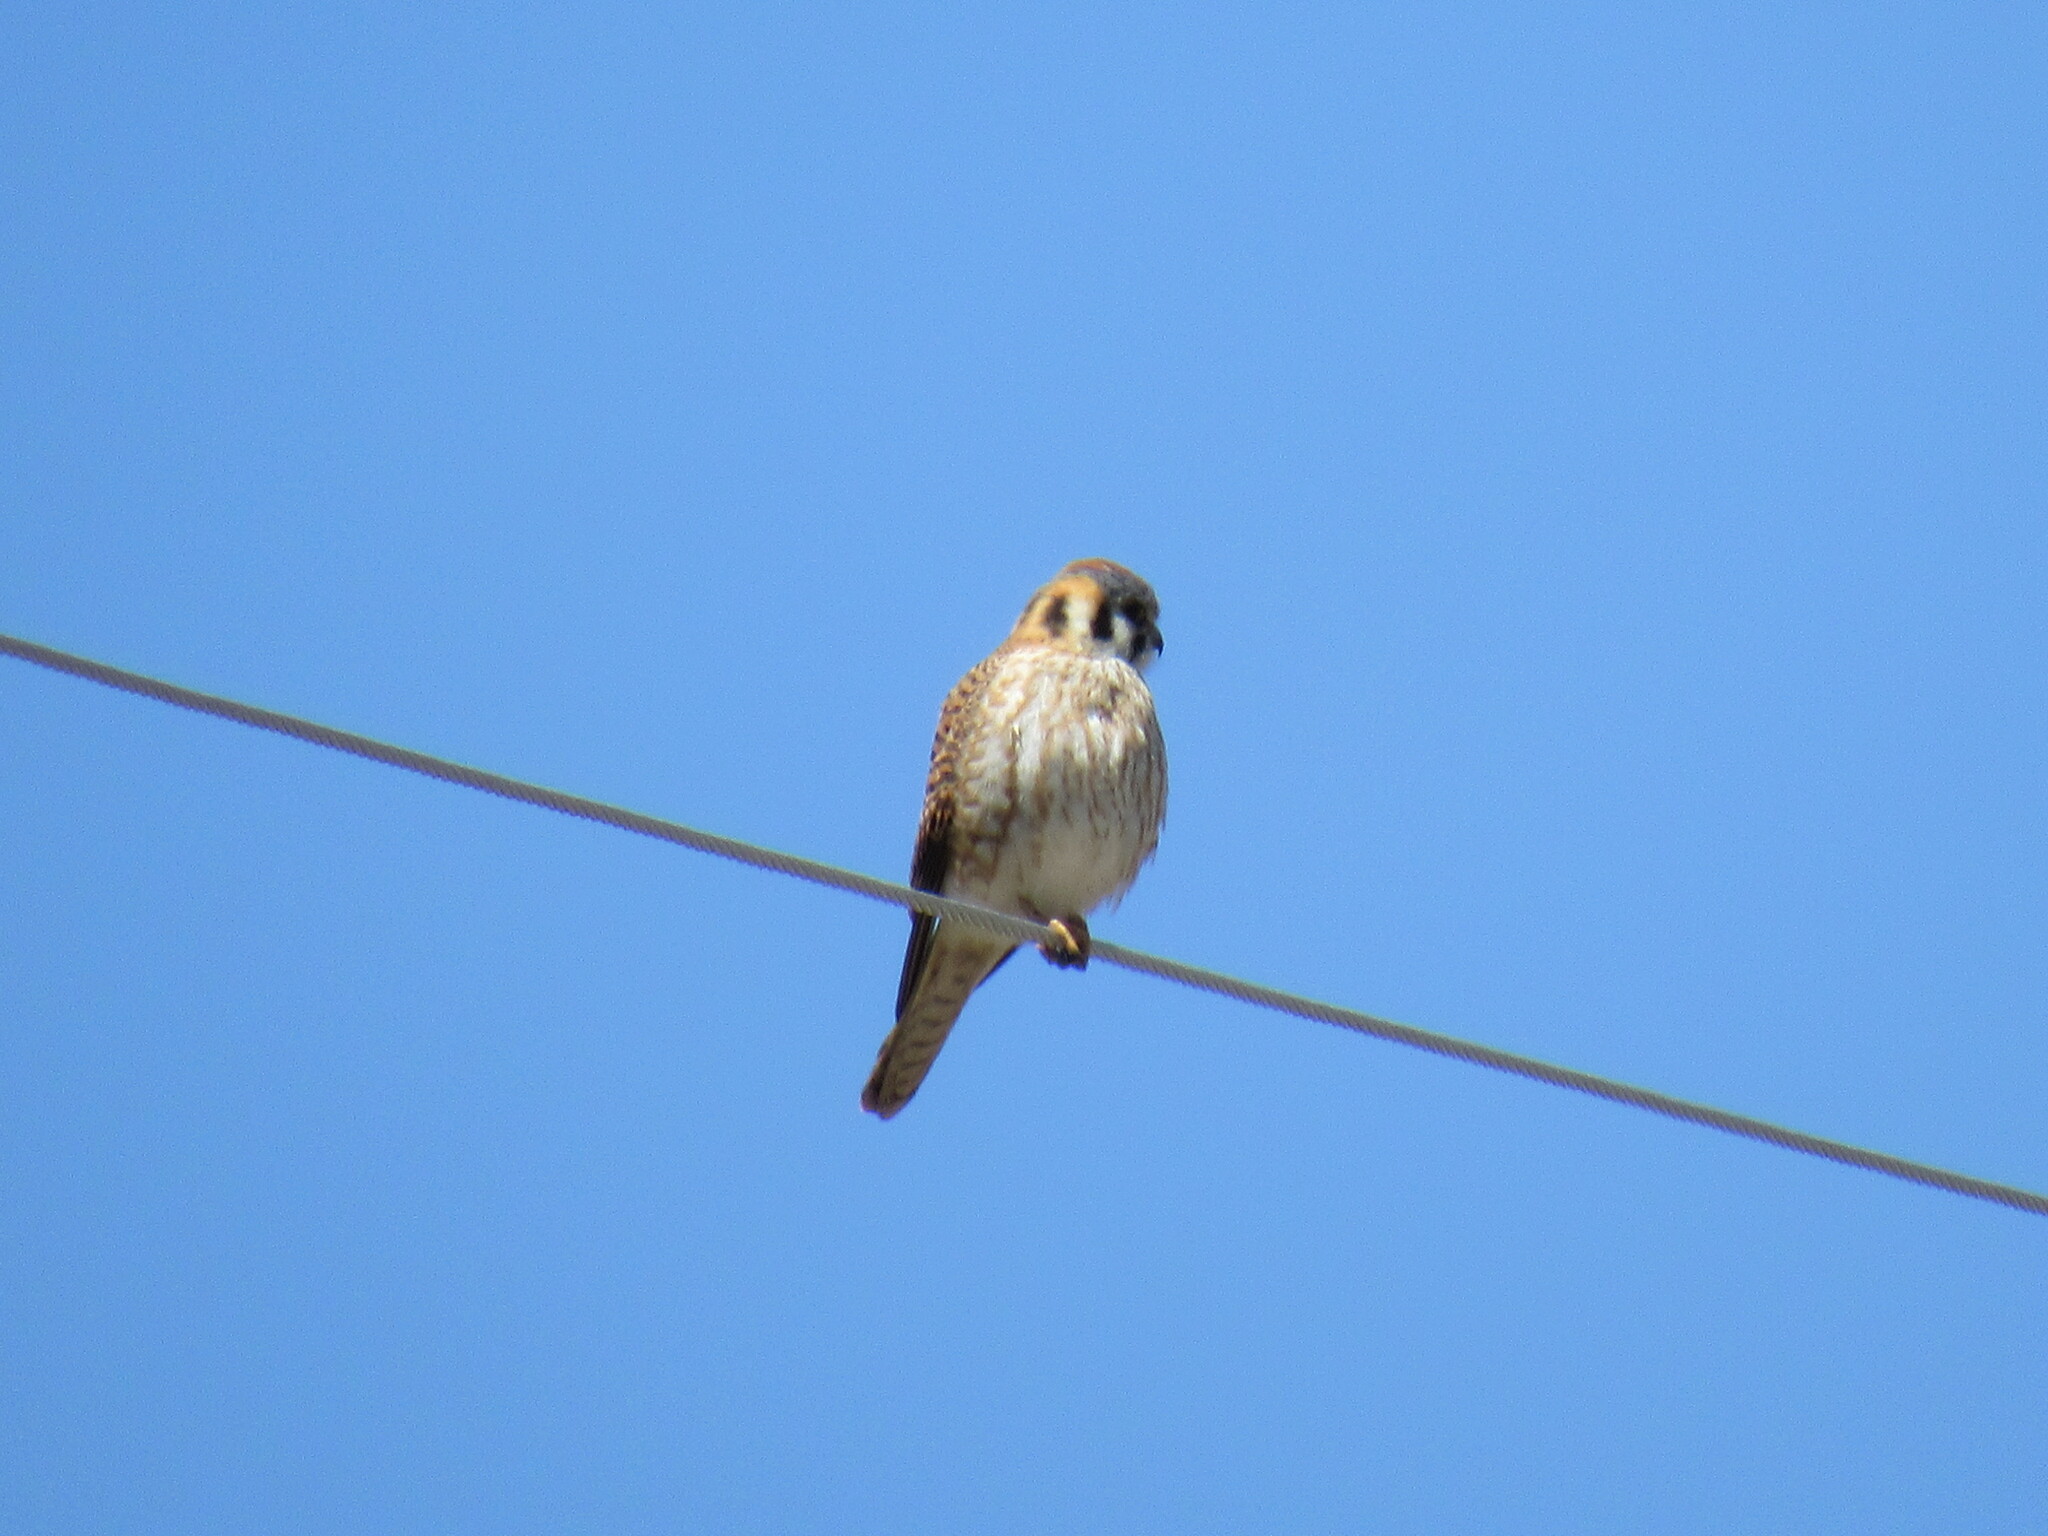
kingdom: Animalia
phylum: Chordata
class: Aves
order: Falconiformes
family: Falconidae
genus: Falco
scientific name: Falco sparverius
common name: American kestrel
